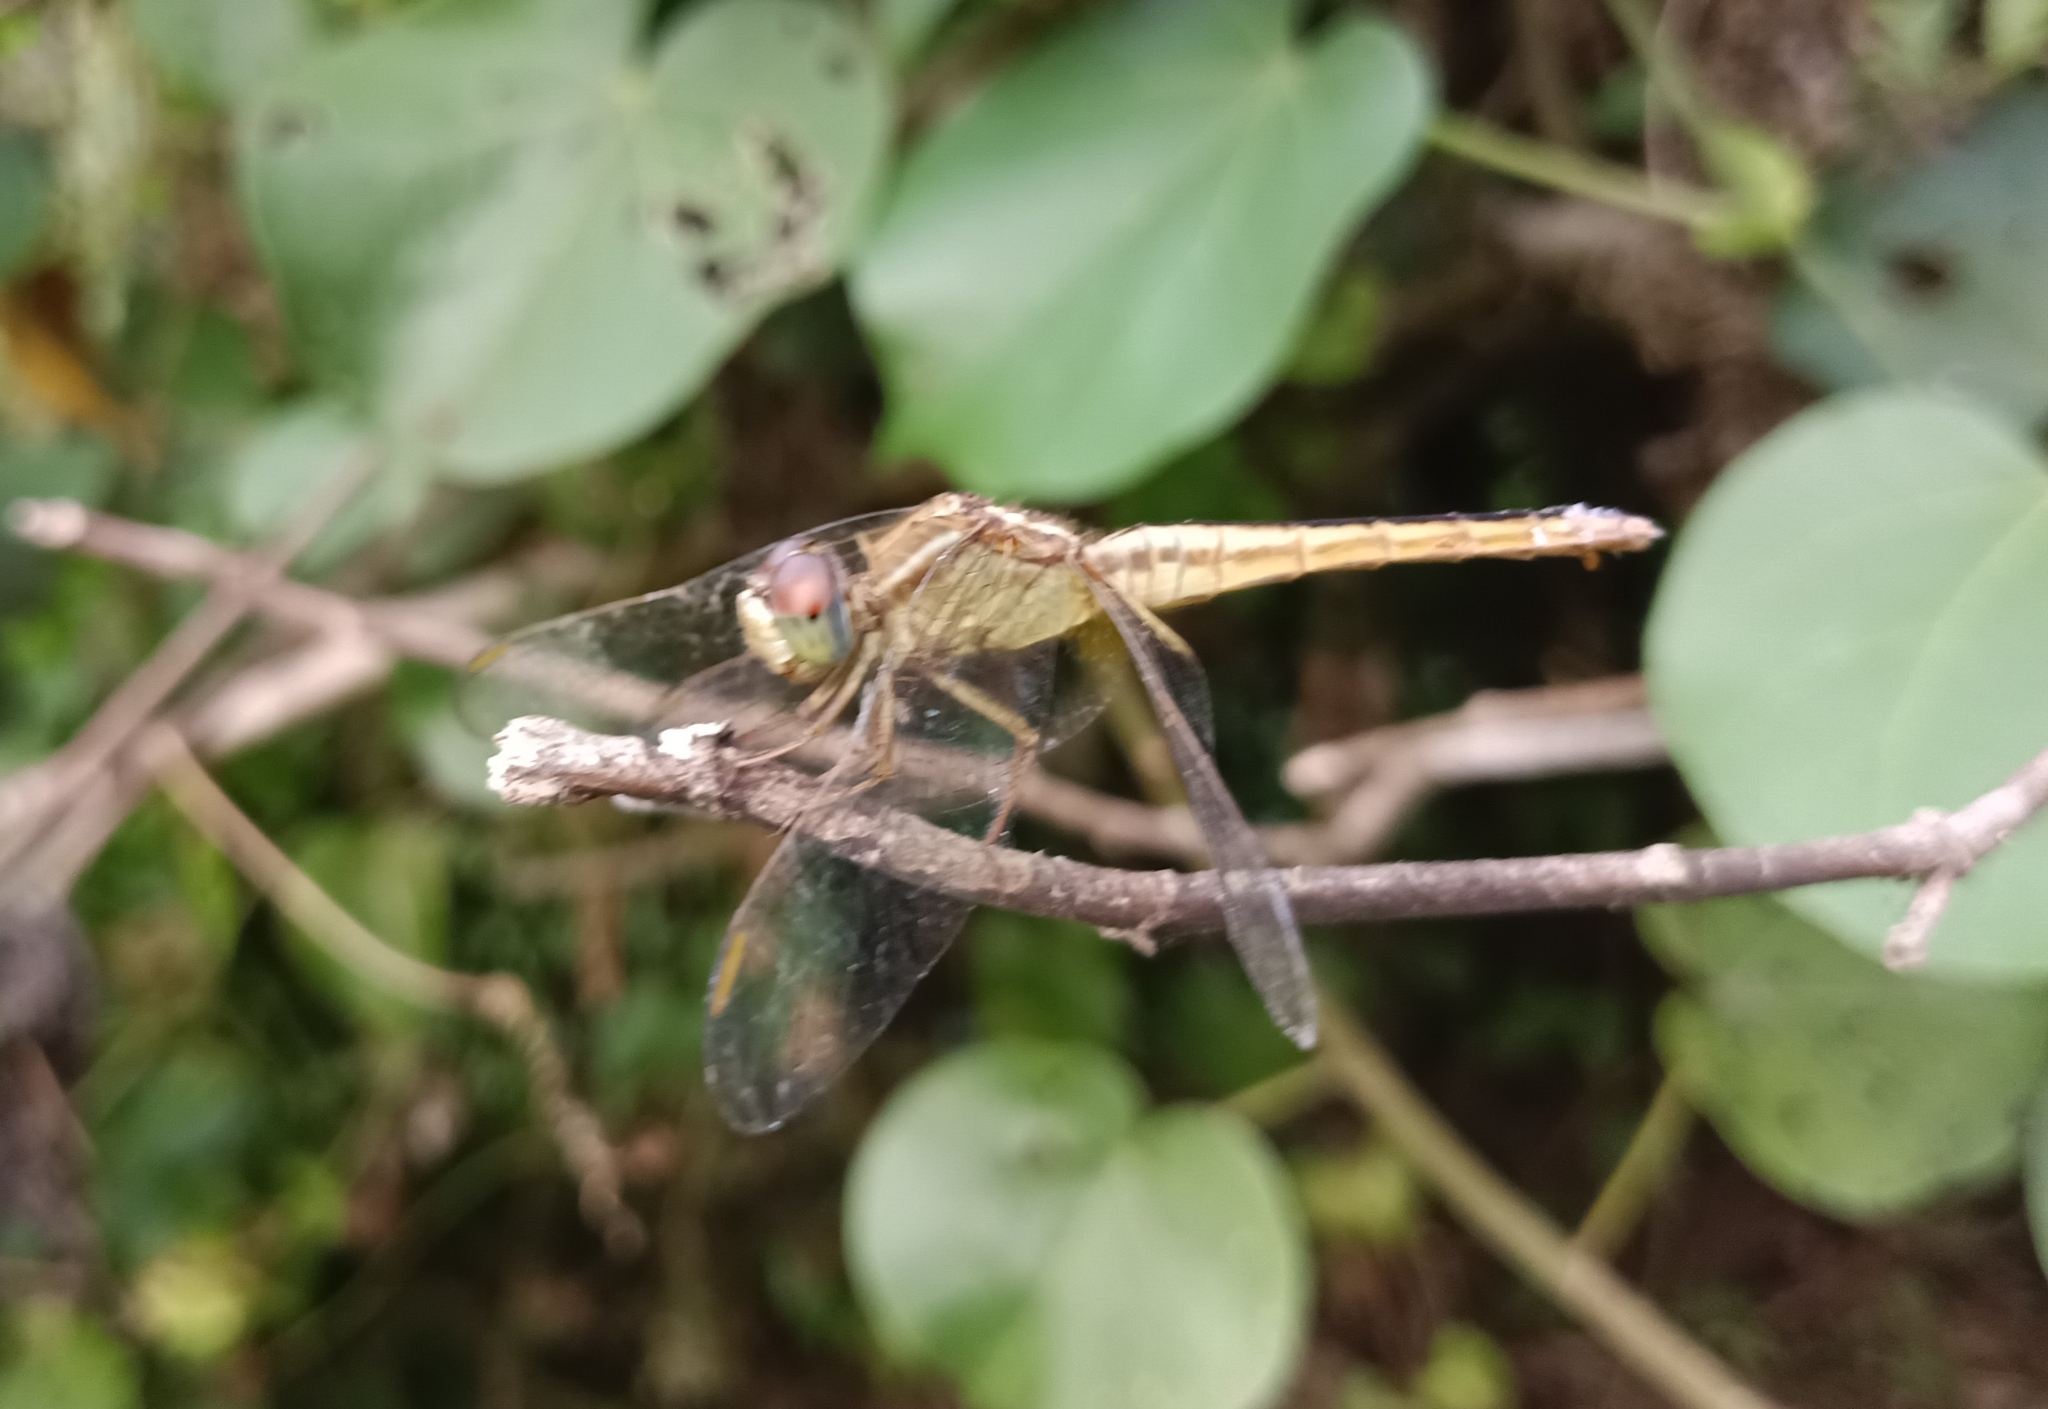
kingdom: Animalia
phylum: Arthropoda
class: Insecta
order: Odonata
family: Libellulidae
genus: Crocothemis
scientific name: Crocothemis servilia
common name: Scarlet skimmer
